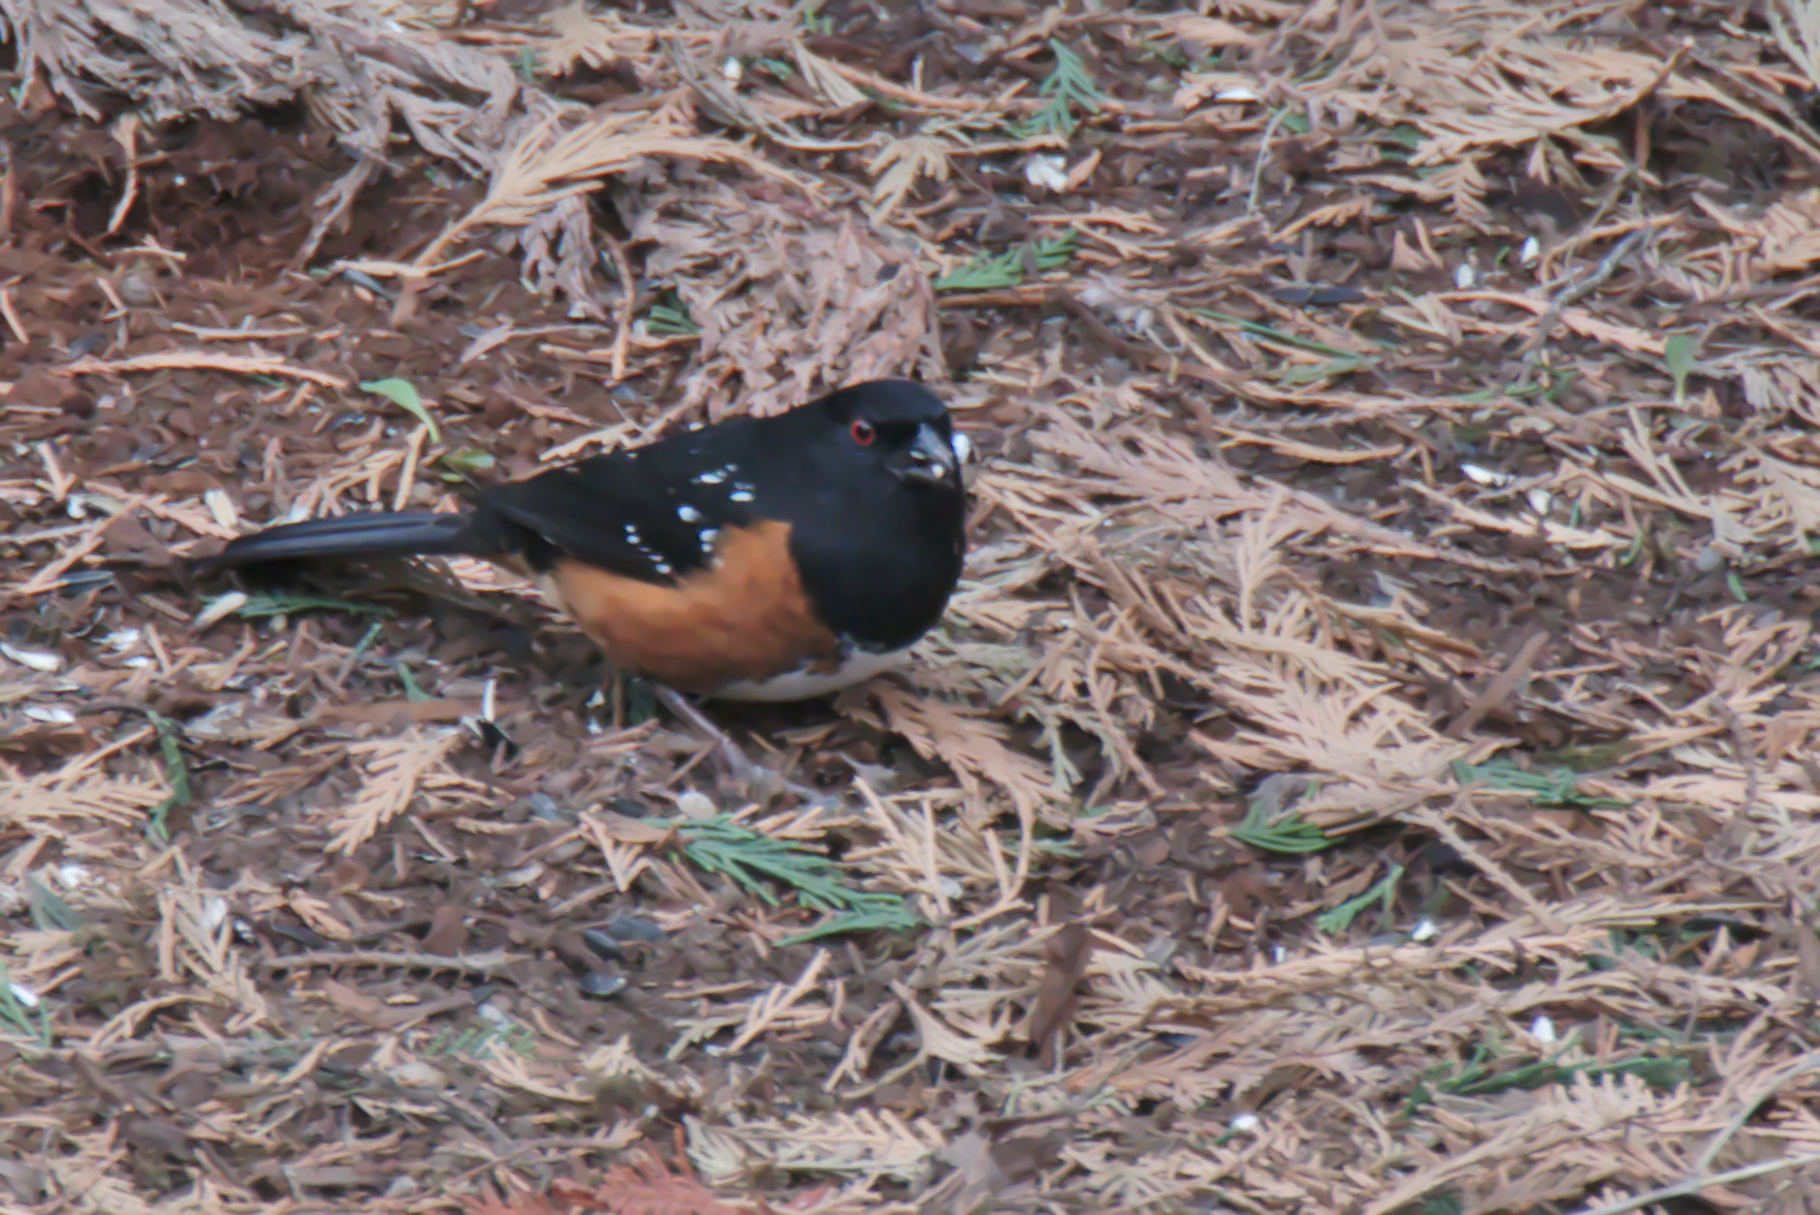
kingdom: Animalia
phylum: Chordata
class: Aves
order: Passeriformes
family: Passerellidae
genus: Pipilo
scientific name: Pipilo maculatus
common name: Spotted towhee
